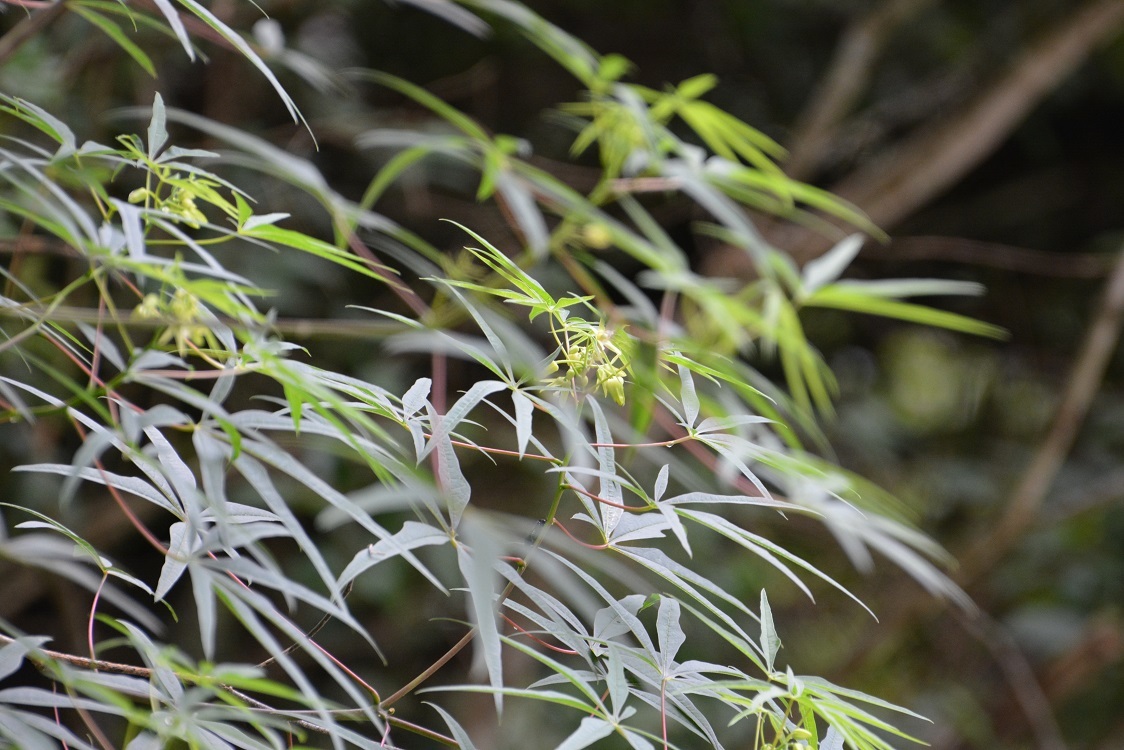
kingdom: Plantae
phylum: Tracheophyta
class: Magnoliopsida
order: Malpighiales
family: Euphorbiaceae
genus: Manihot
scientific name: Manihot rhomboidea
